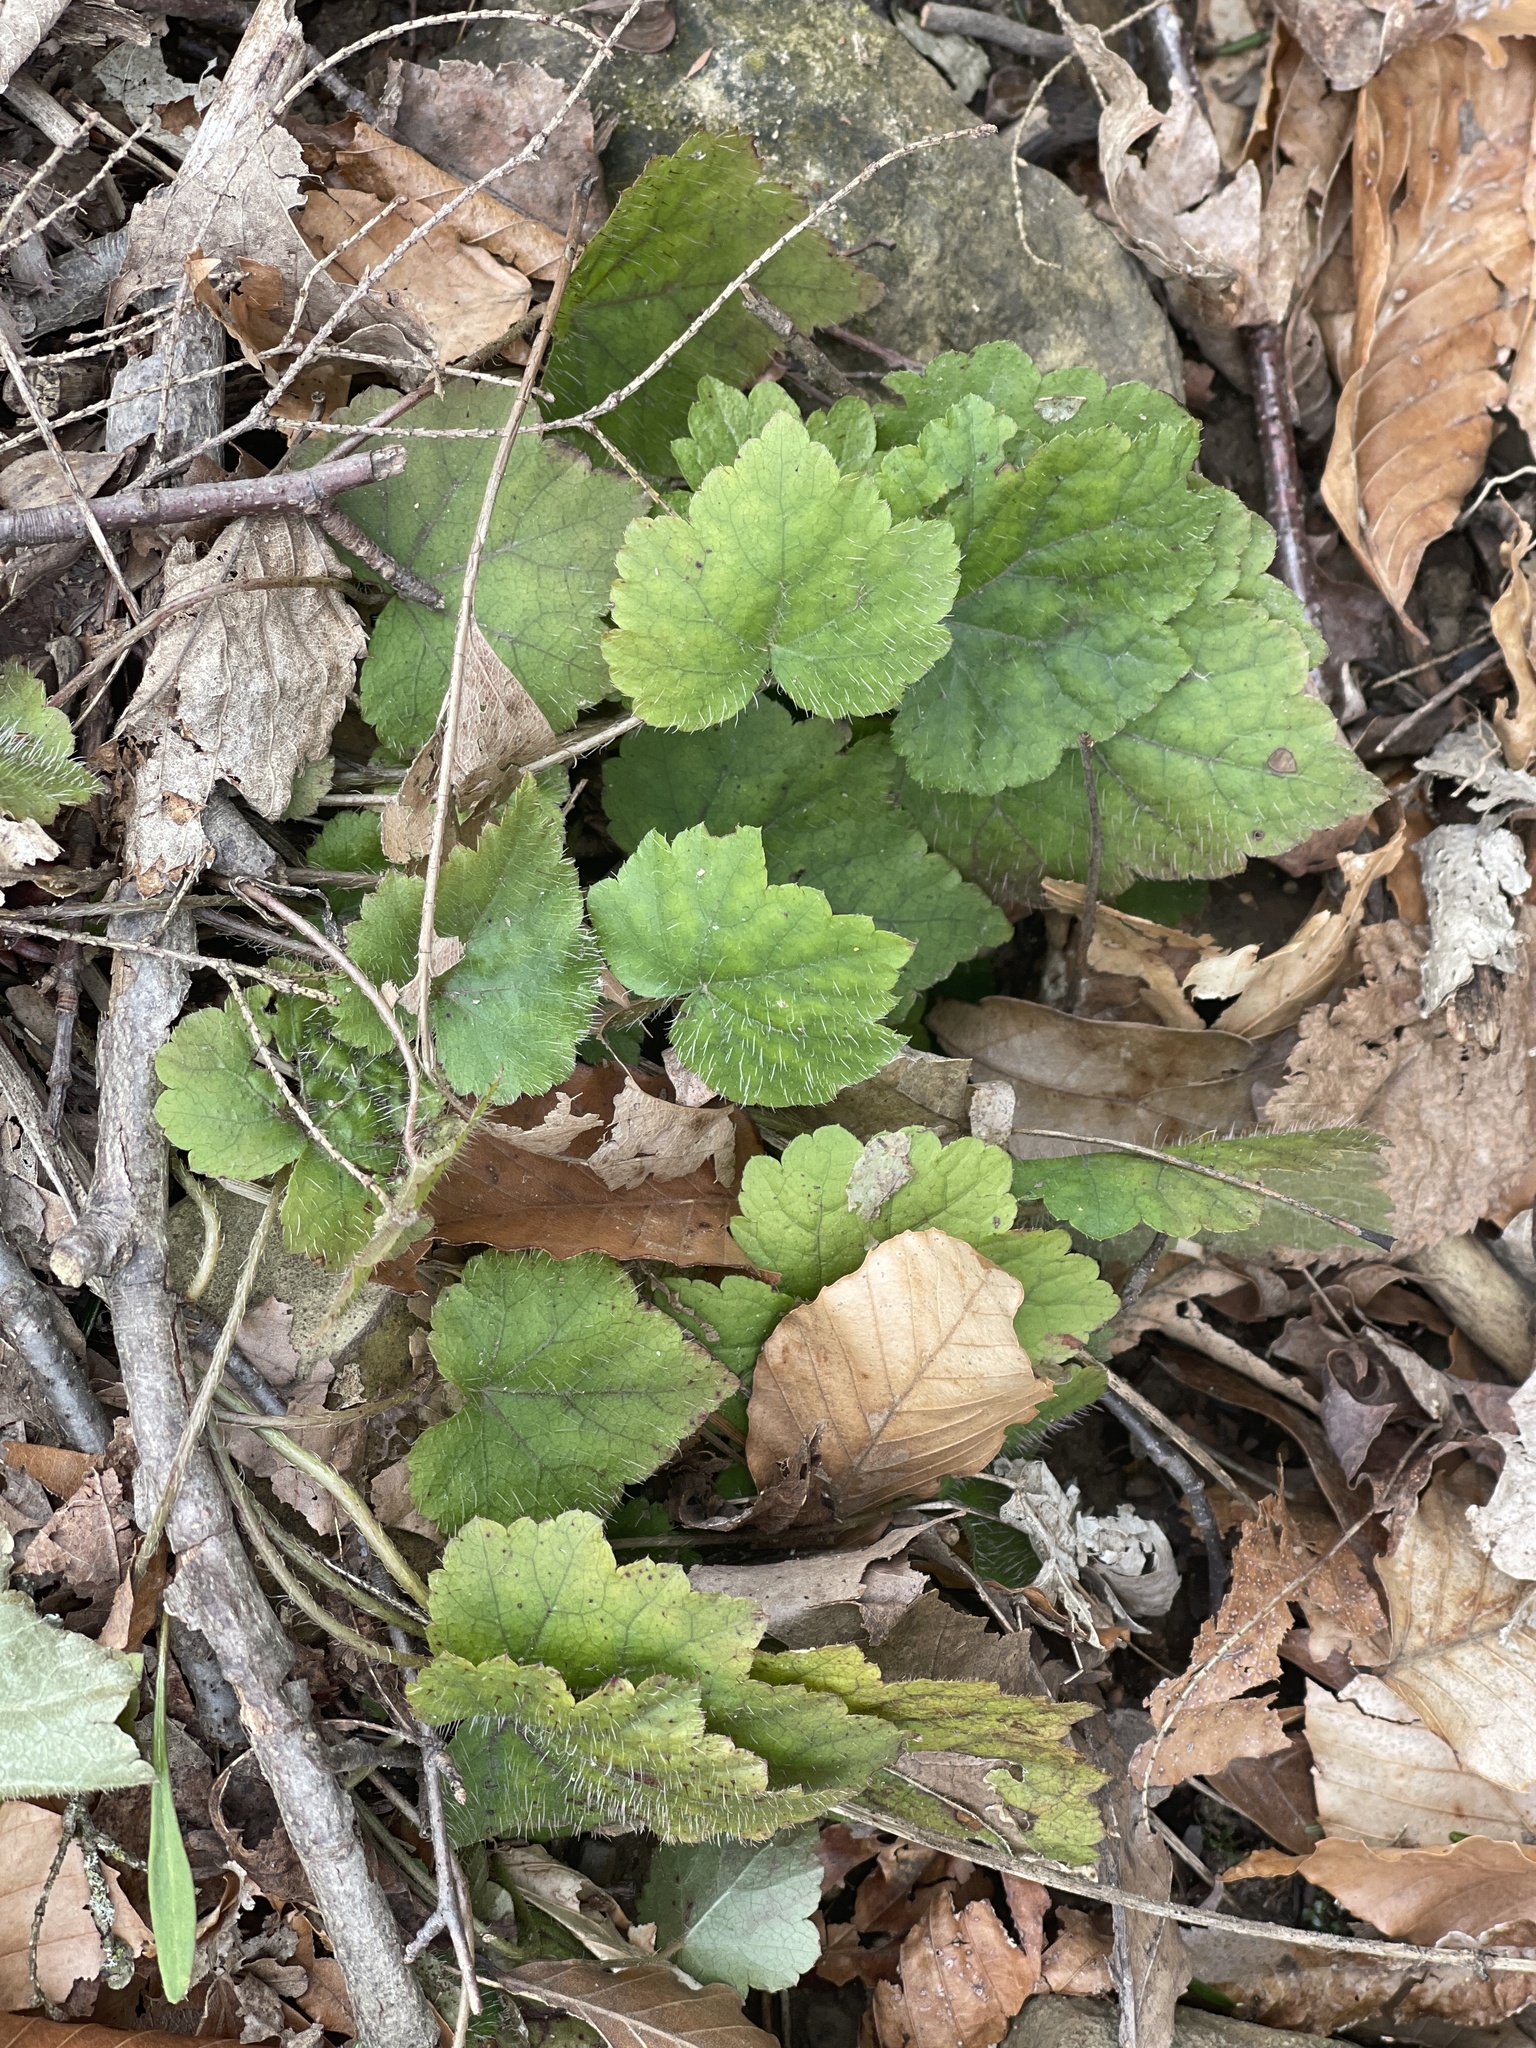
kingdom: Plantae
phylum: Tracheophyta
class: Magnoliopsida
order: Saxifragales
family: Saxifragaceae
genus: Mitella
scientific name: Mitella diphylla
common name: Coolwort
